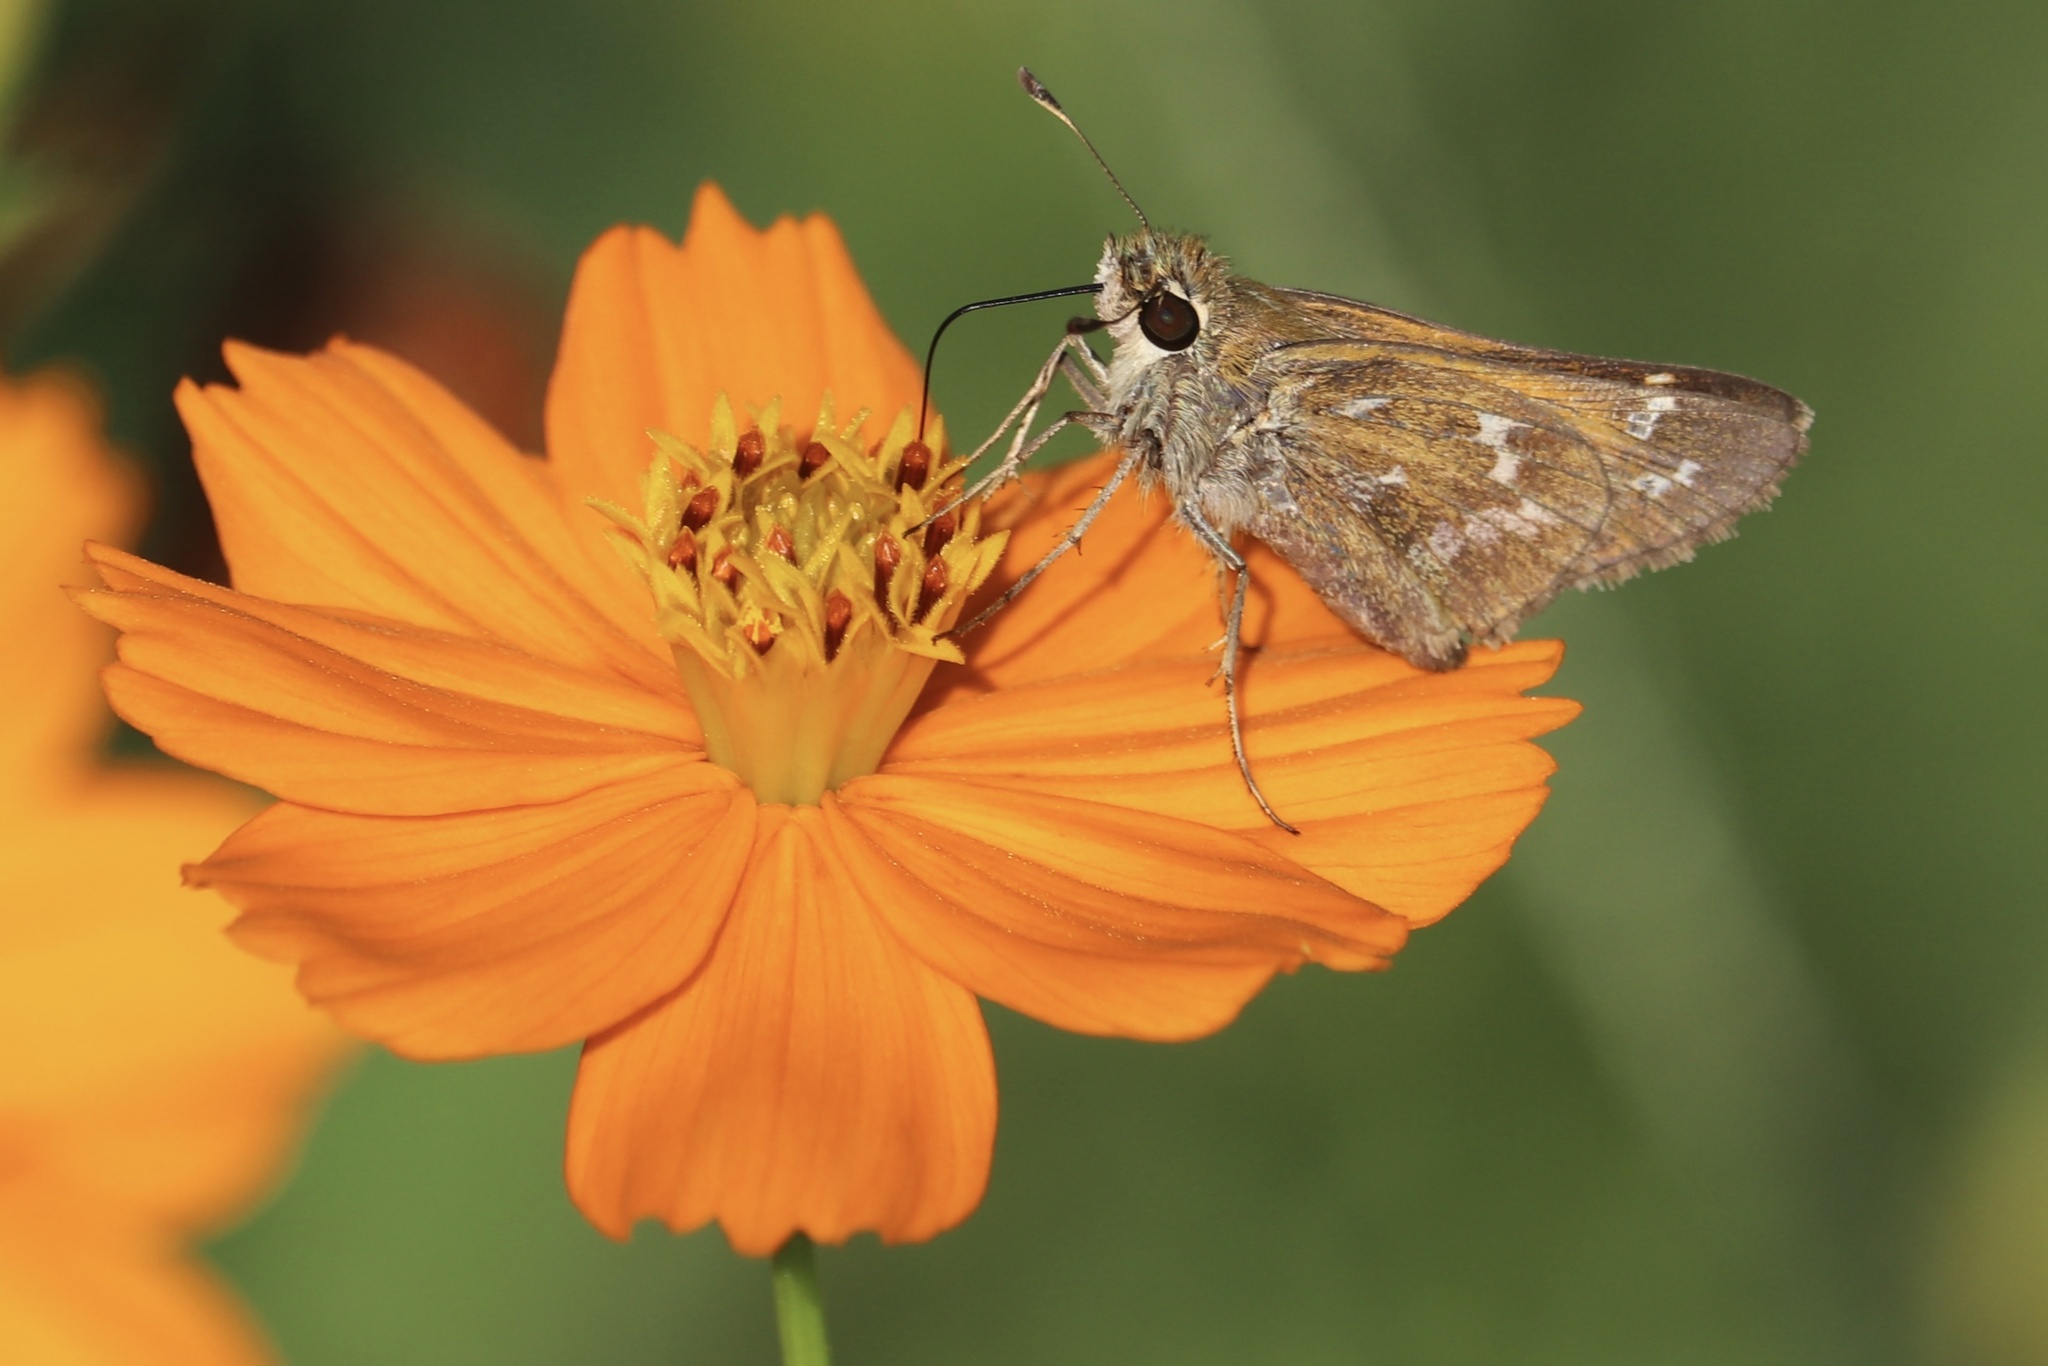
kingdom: Animalia
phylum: Arthropoda
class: Insecta
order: Lepidoptera
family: Hesperiidae
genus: Atalopedes
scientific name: Atalopedes
